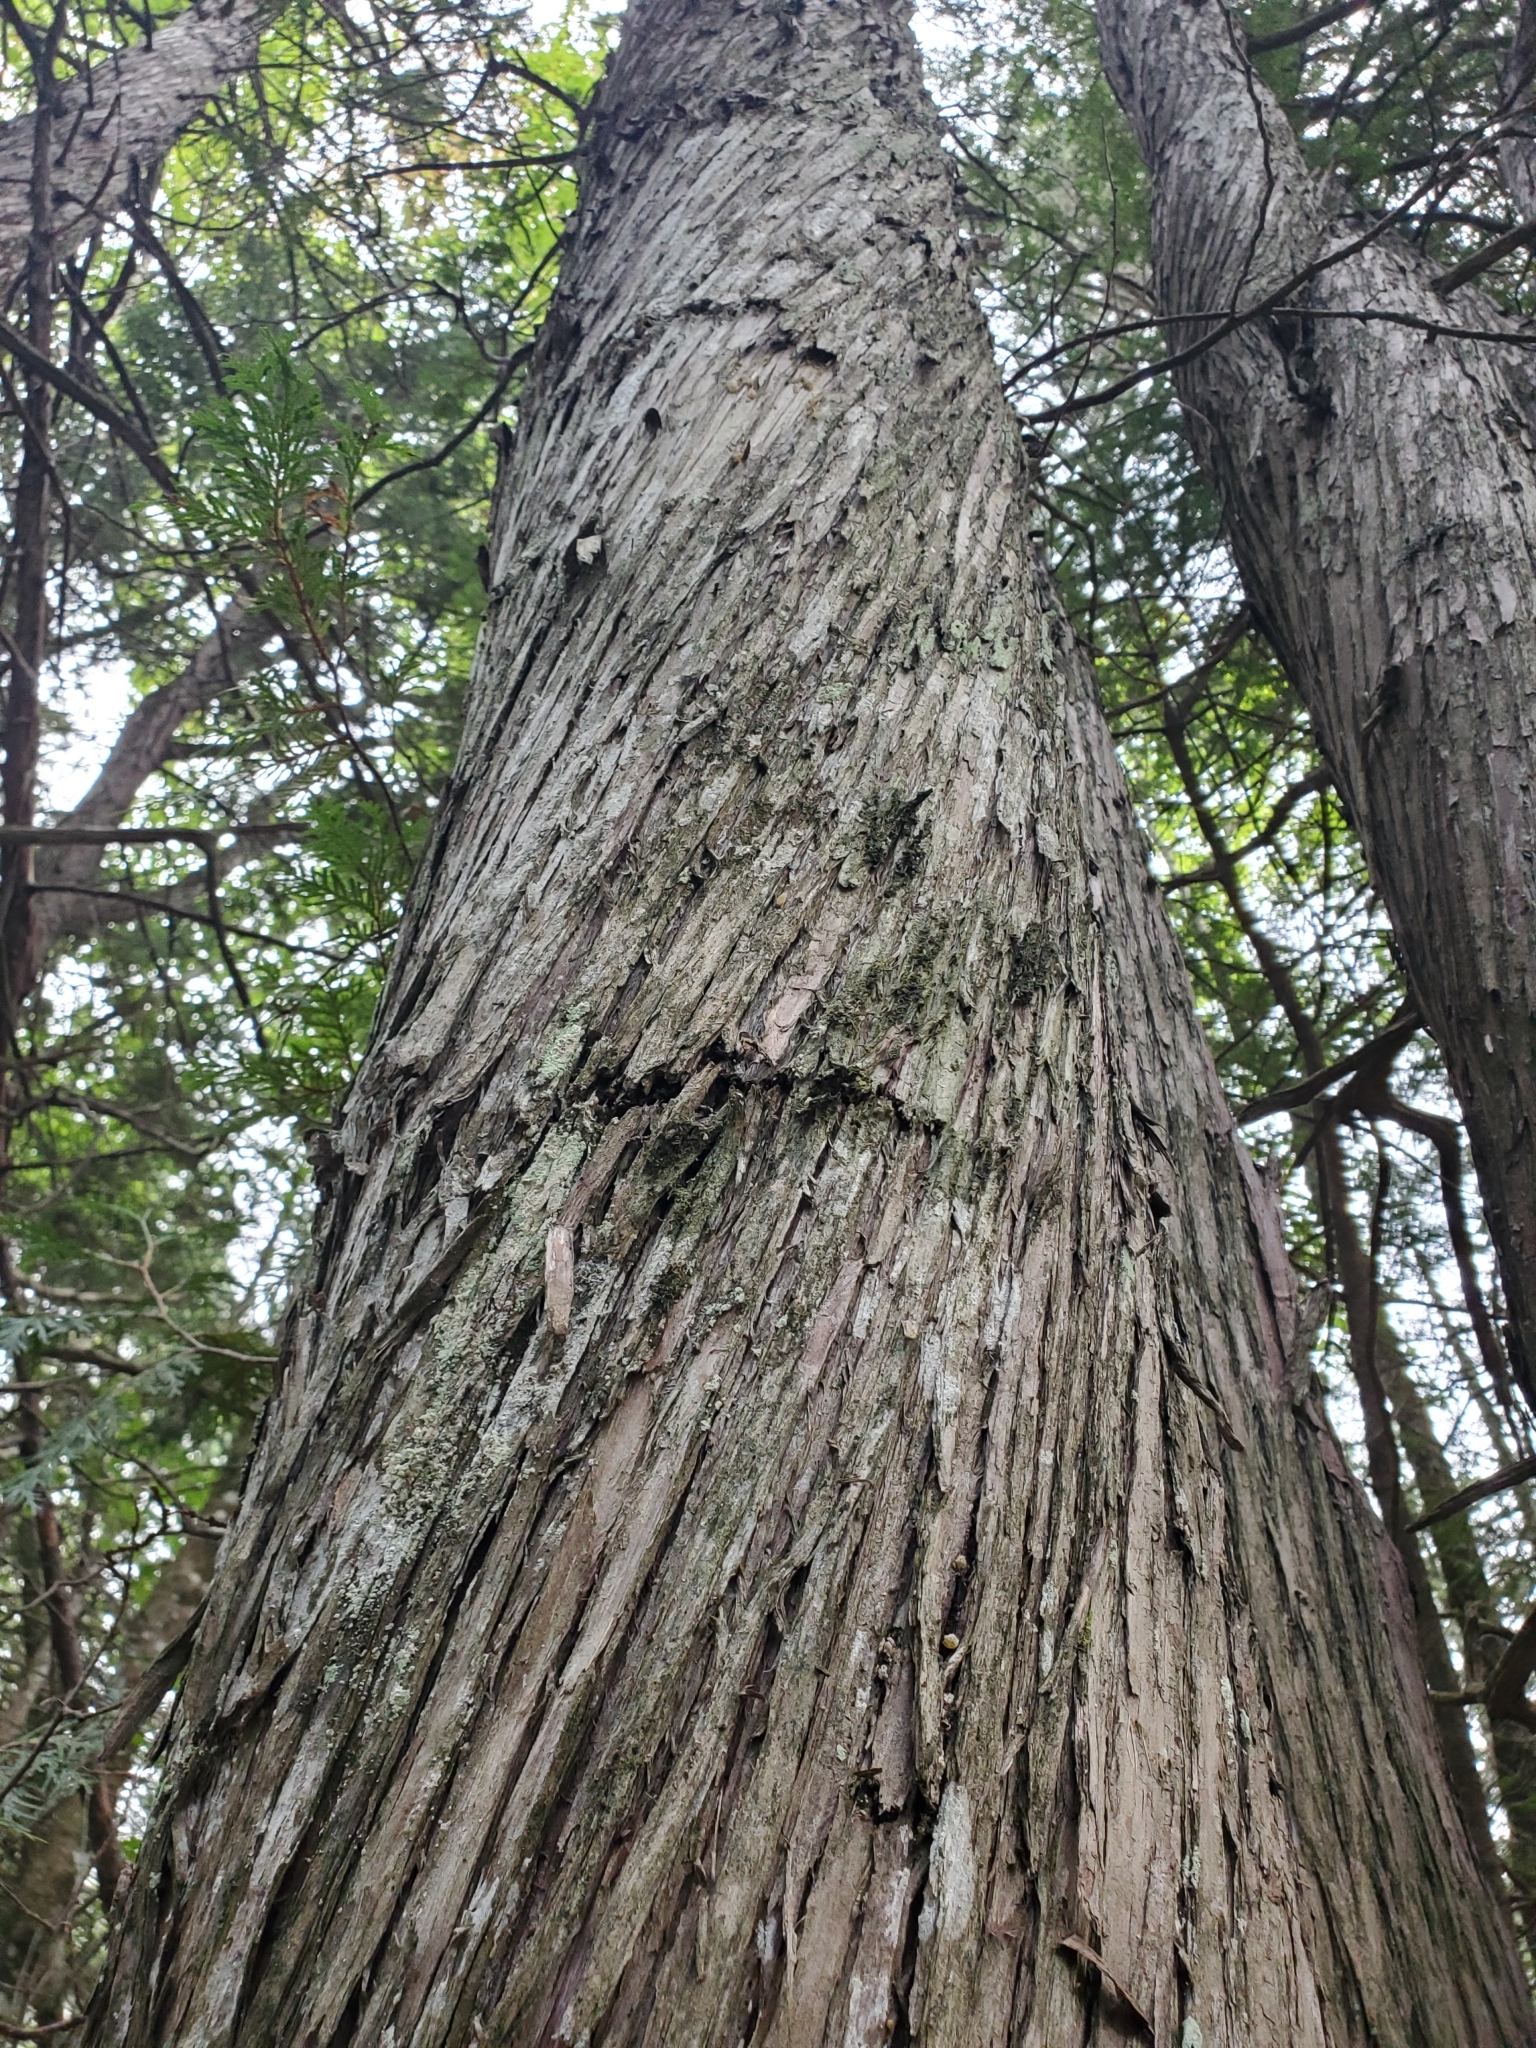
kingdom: Plantae
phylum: Tracheophyta
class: Pinopsida
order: Pinales
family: Cupressaceae
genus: Thuja
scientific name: Thuja occidentalis
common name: Northern white-cedar
